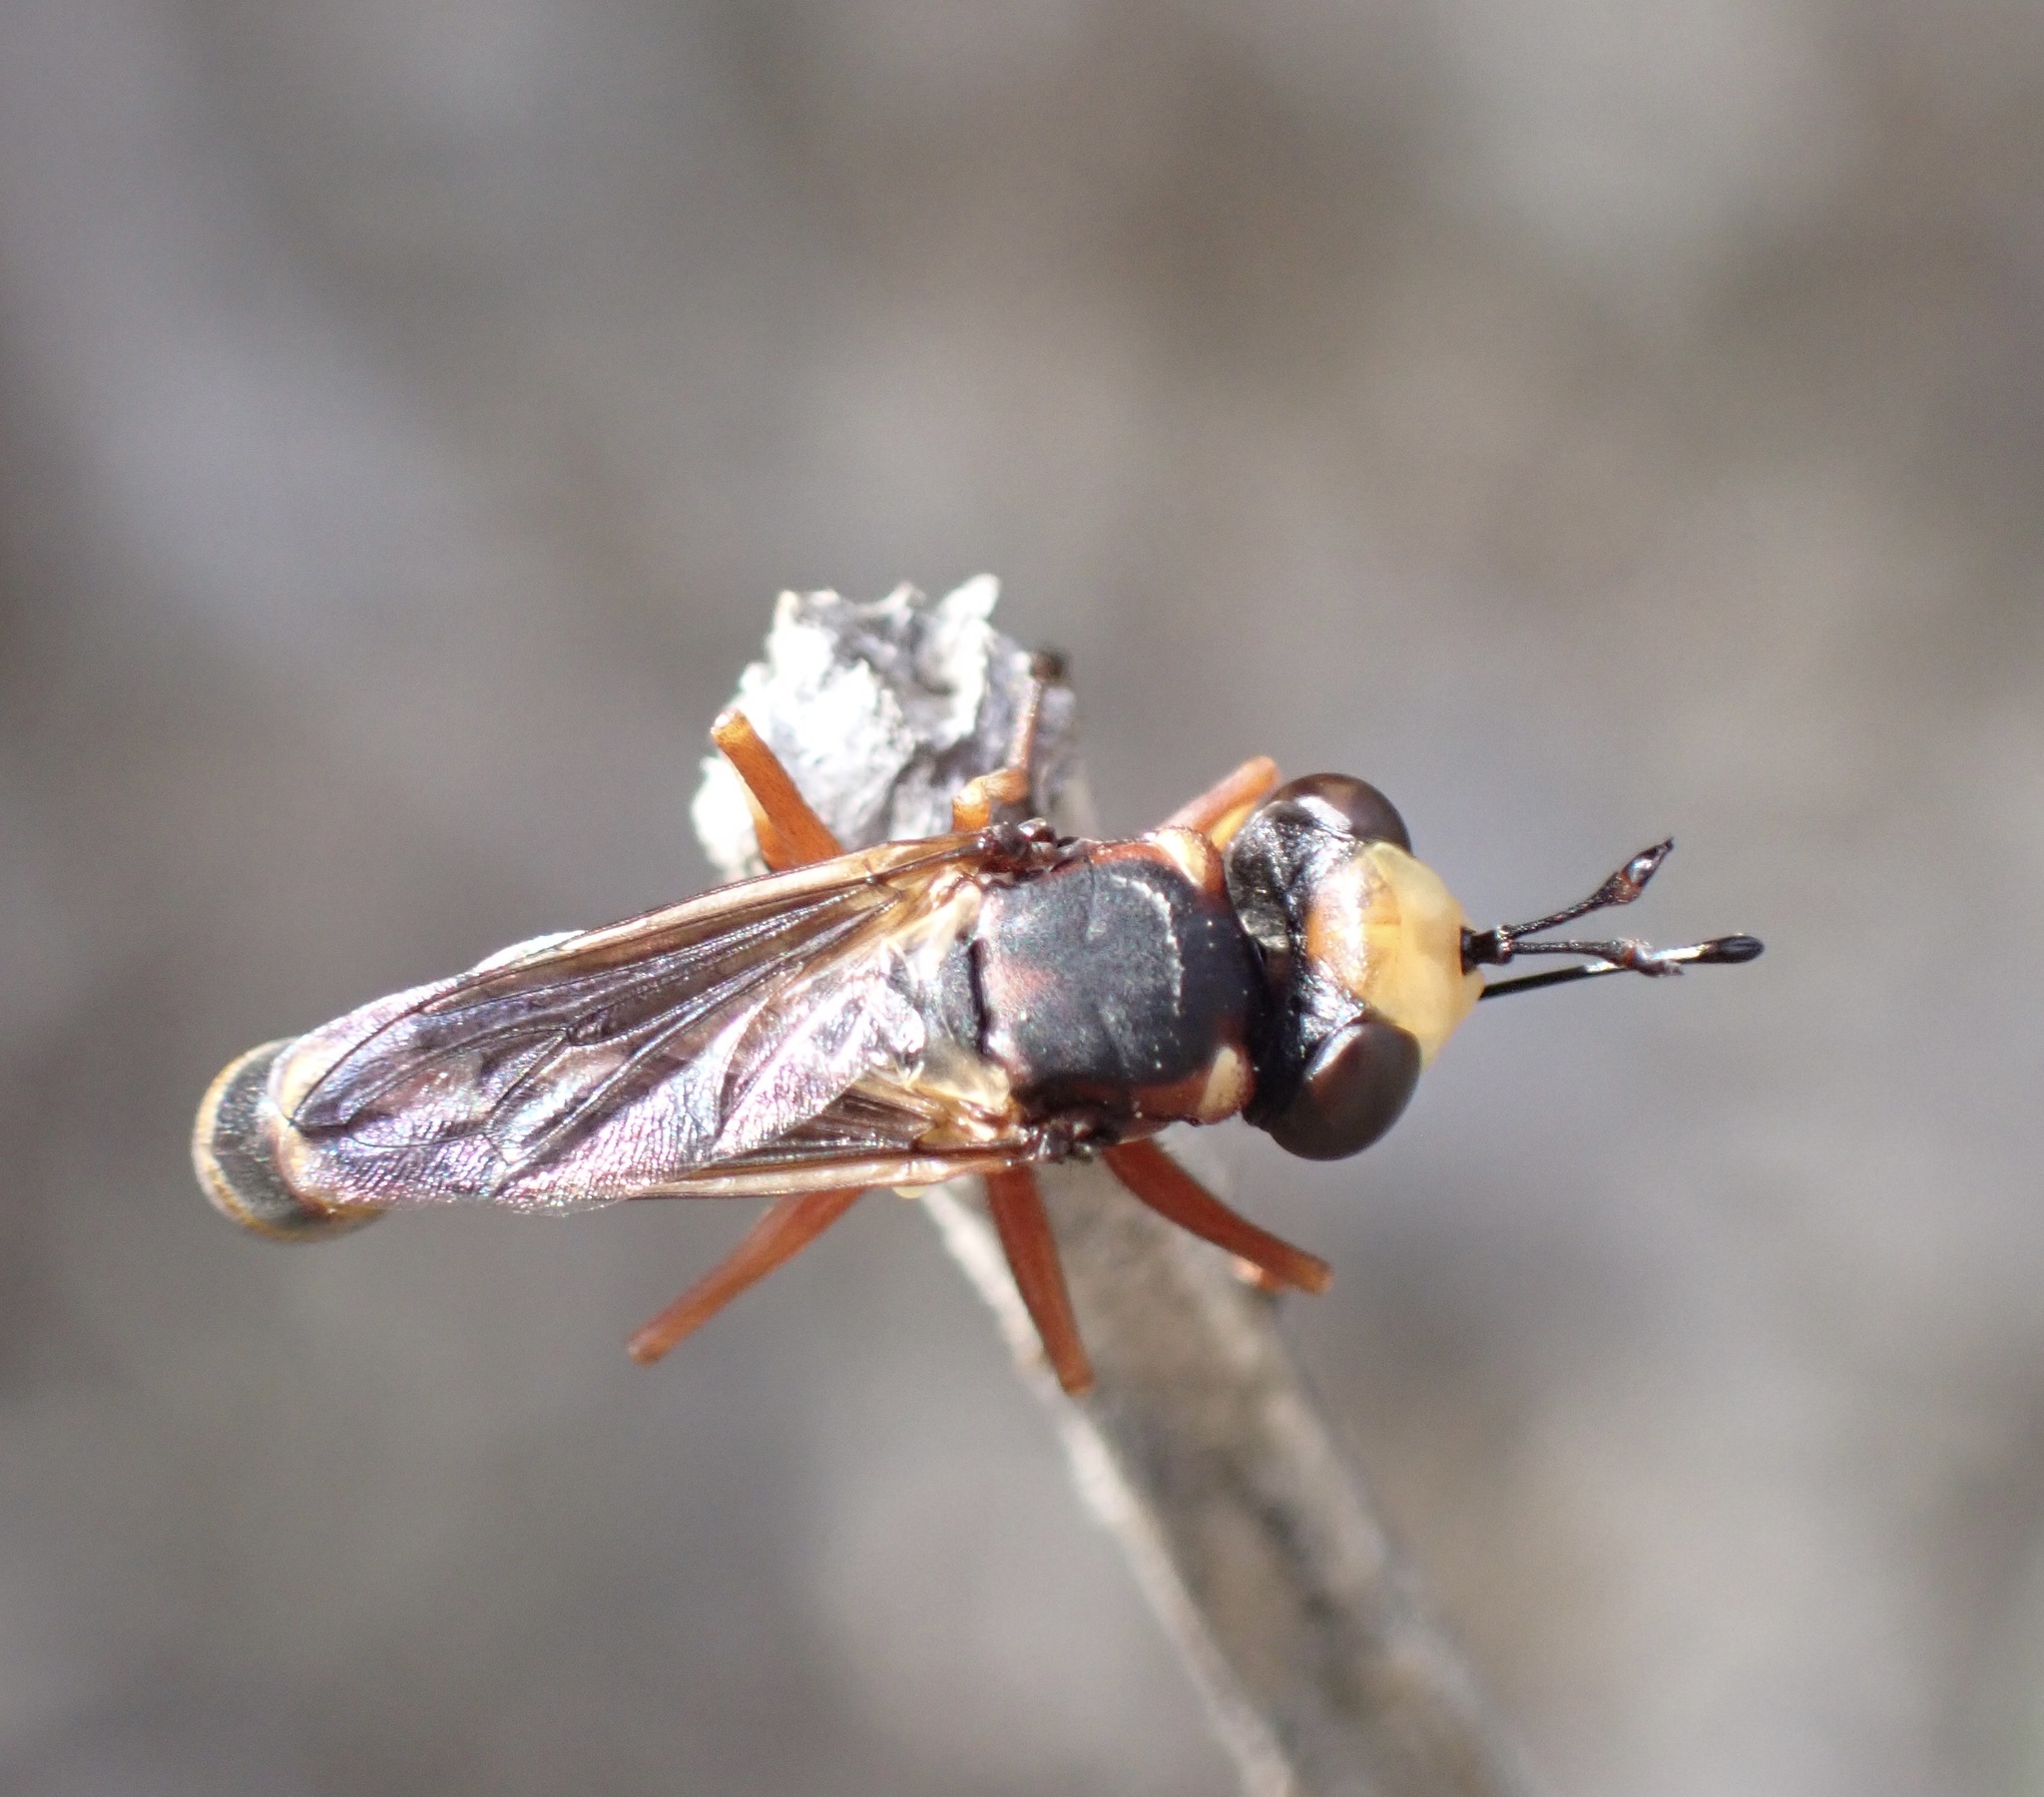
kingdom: Animalia
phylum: Arthropoda
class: Insecta
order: Diptera
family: Conopidae
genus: Physocephala
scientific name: Physocephala vittata
